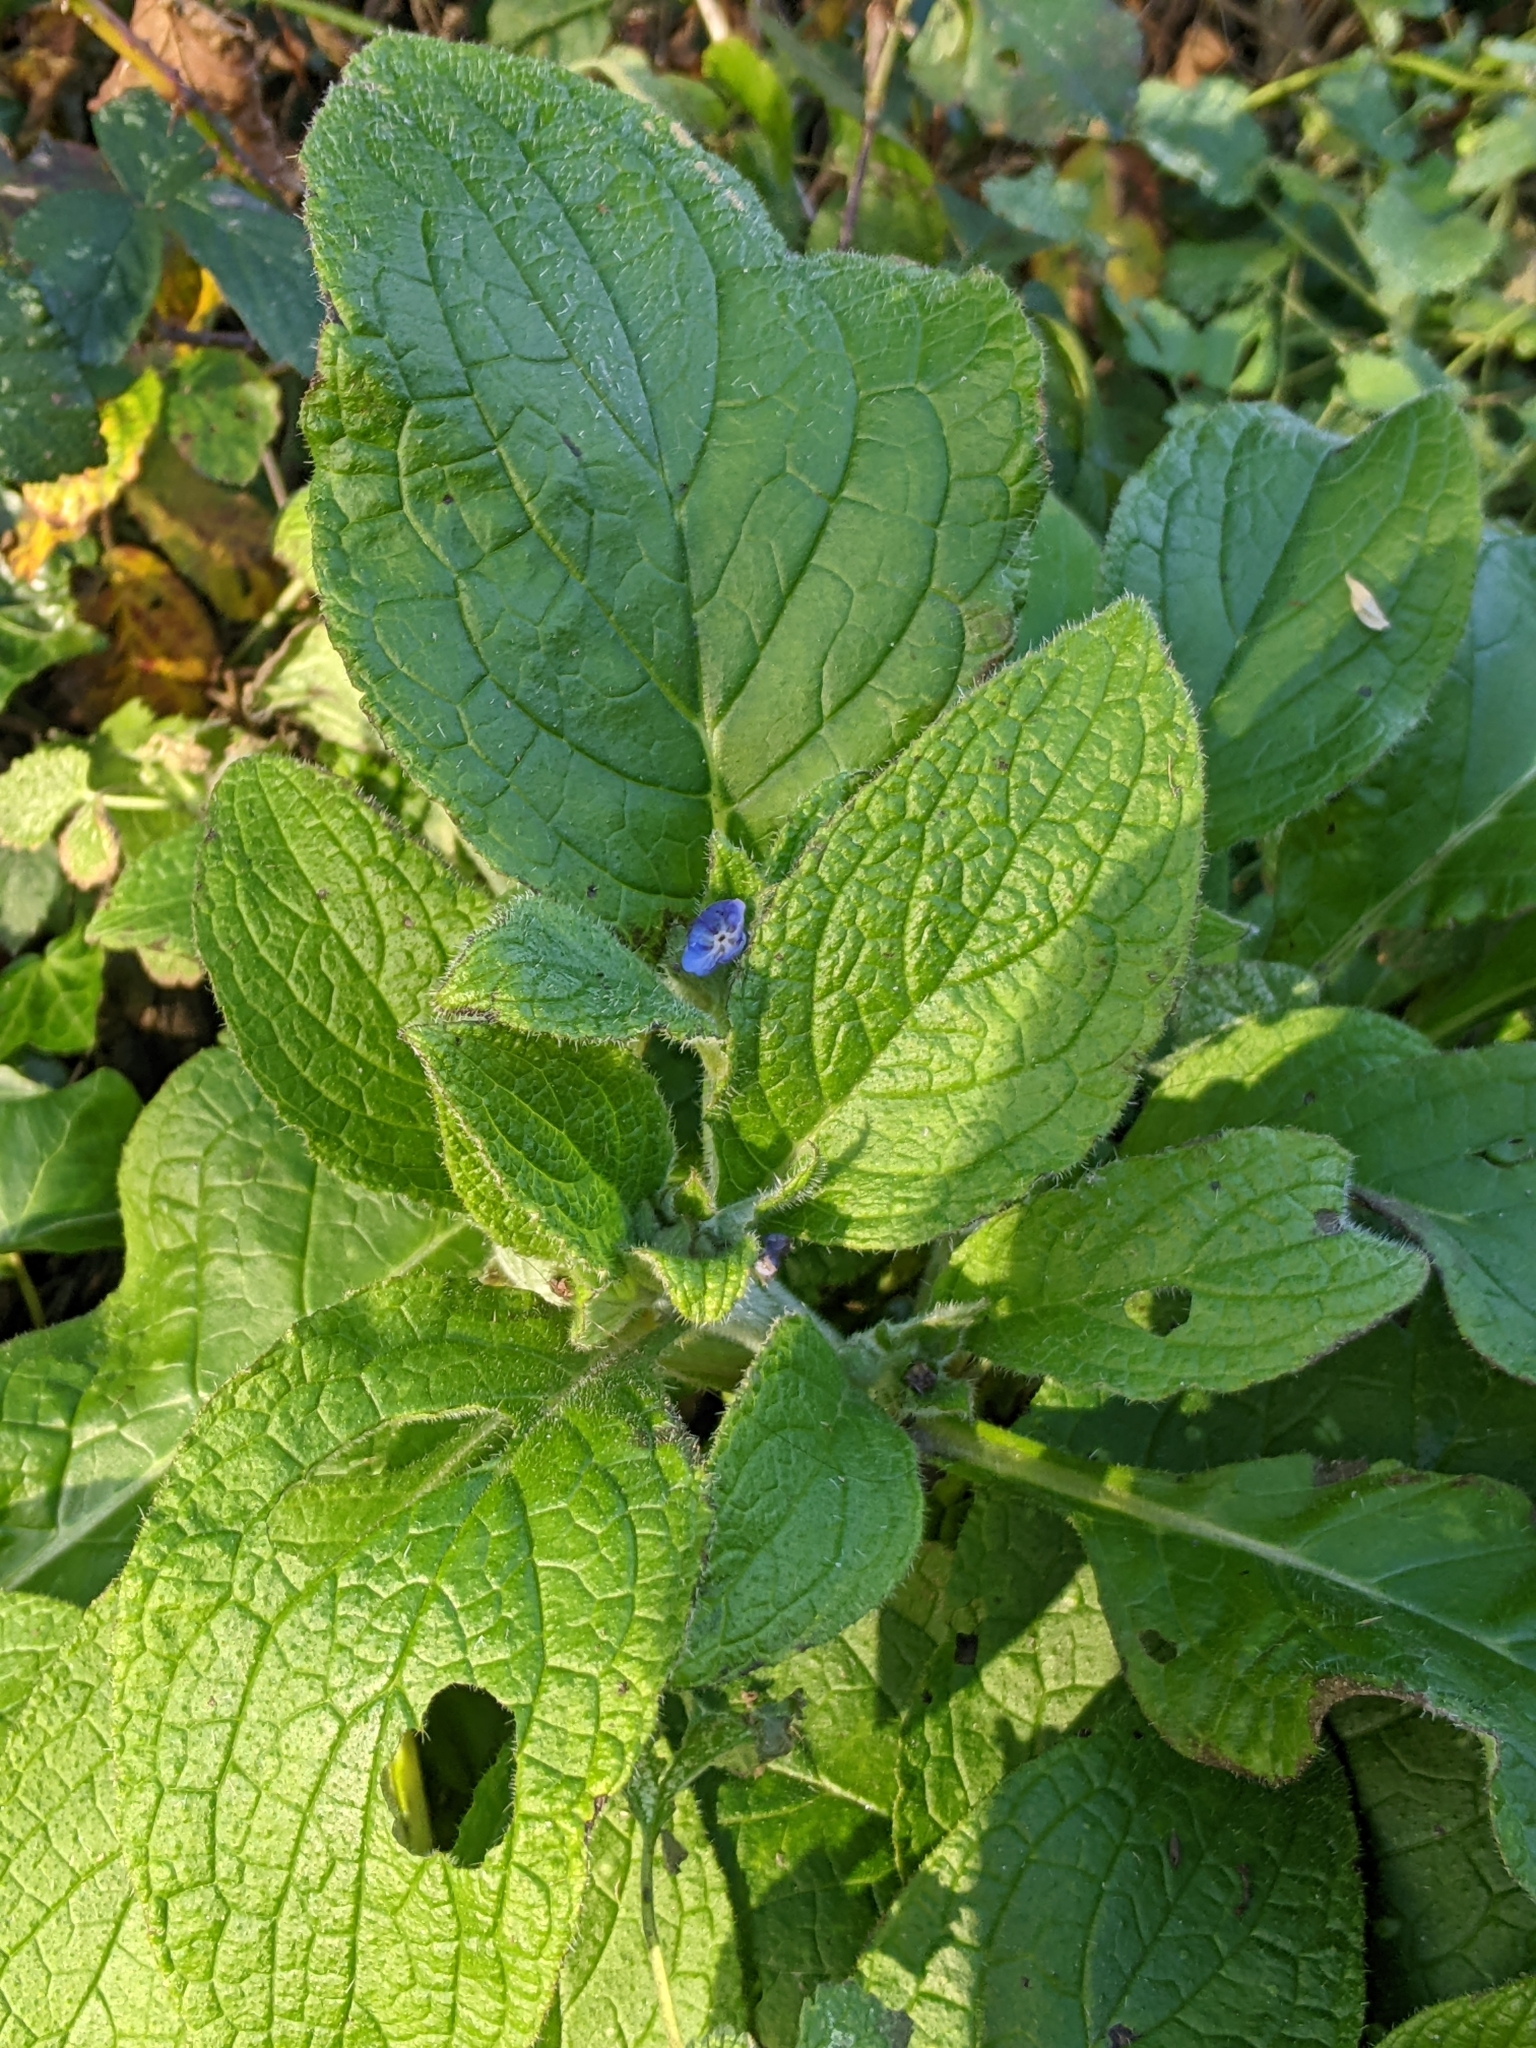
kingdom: Plantae
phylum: Tracheophyta
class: Magnoliopsida
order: Boraginales
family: Boraginaceae
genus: Pentaglottis
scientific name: Pentaglottis sempervirens
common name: Green alkanet
